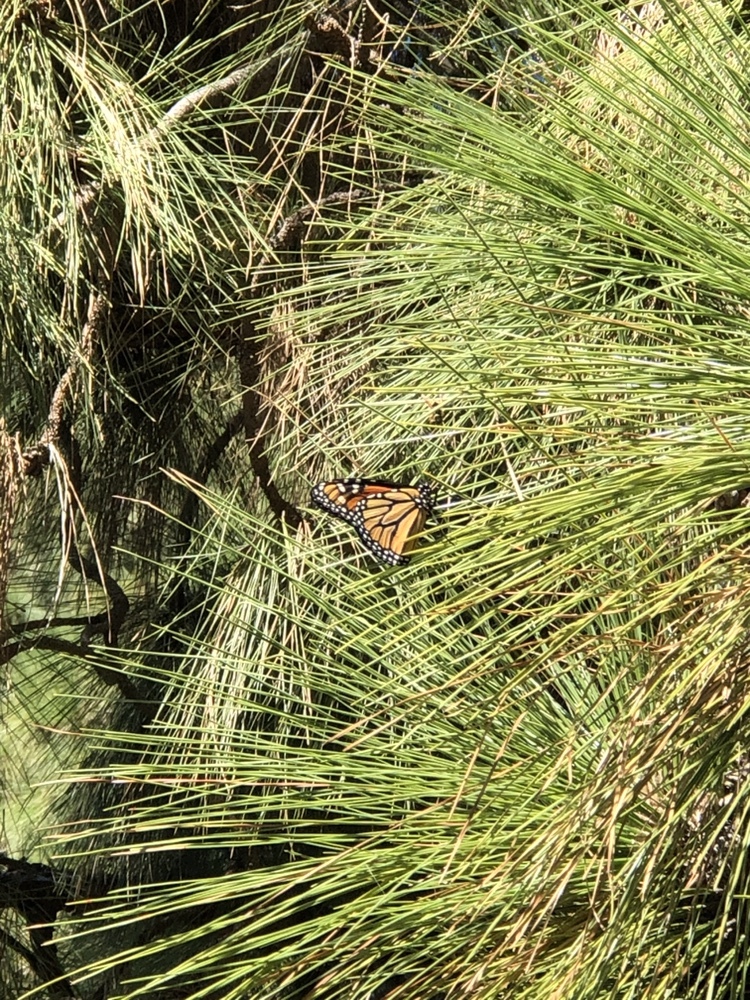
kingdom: Animalia
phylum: Arthropoda
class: Insecta
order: Lepidoptera
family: Nymphalidae
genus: Danaus
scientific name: Danaus plexippus
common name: Monarch
